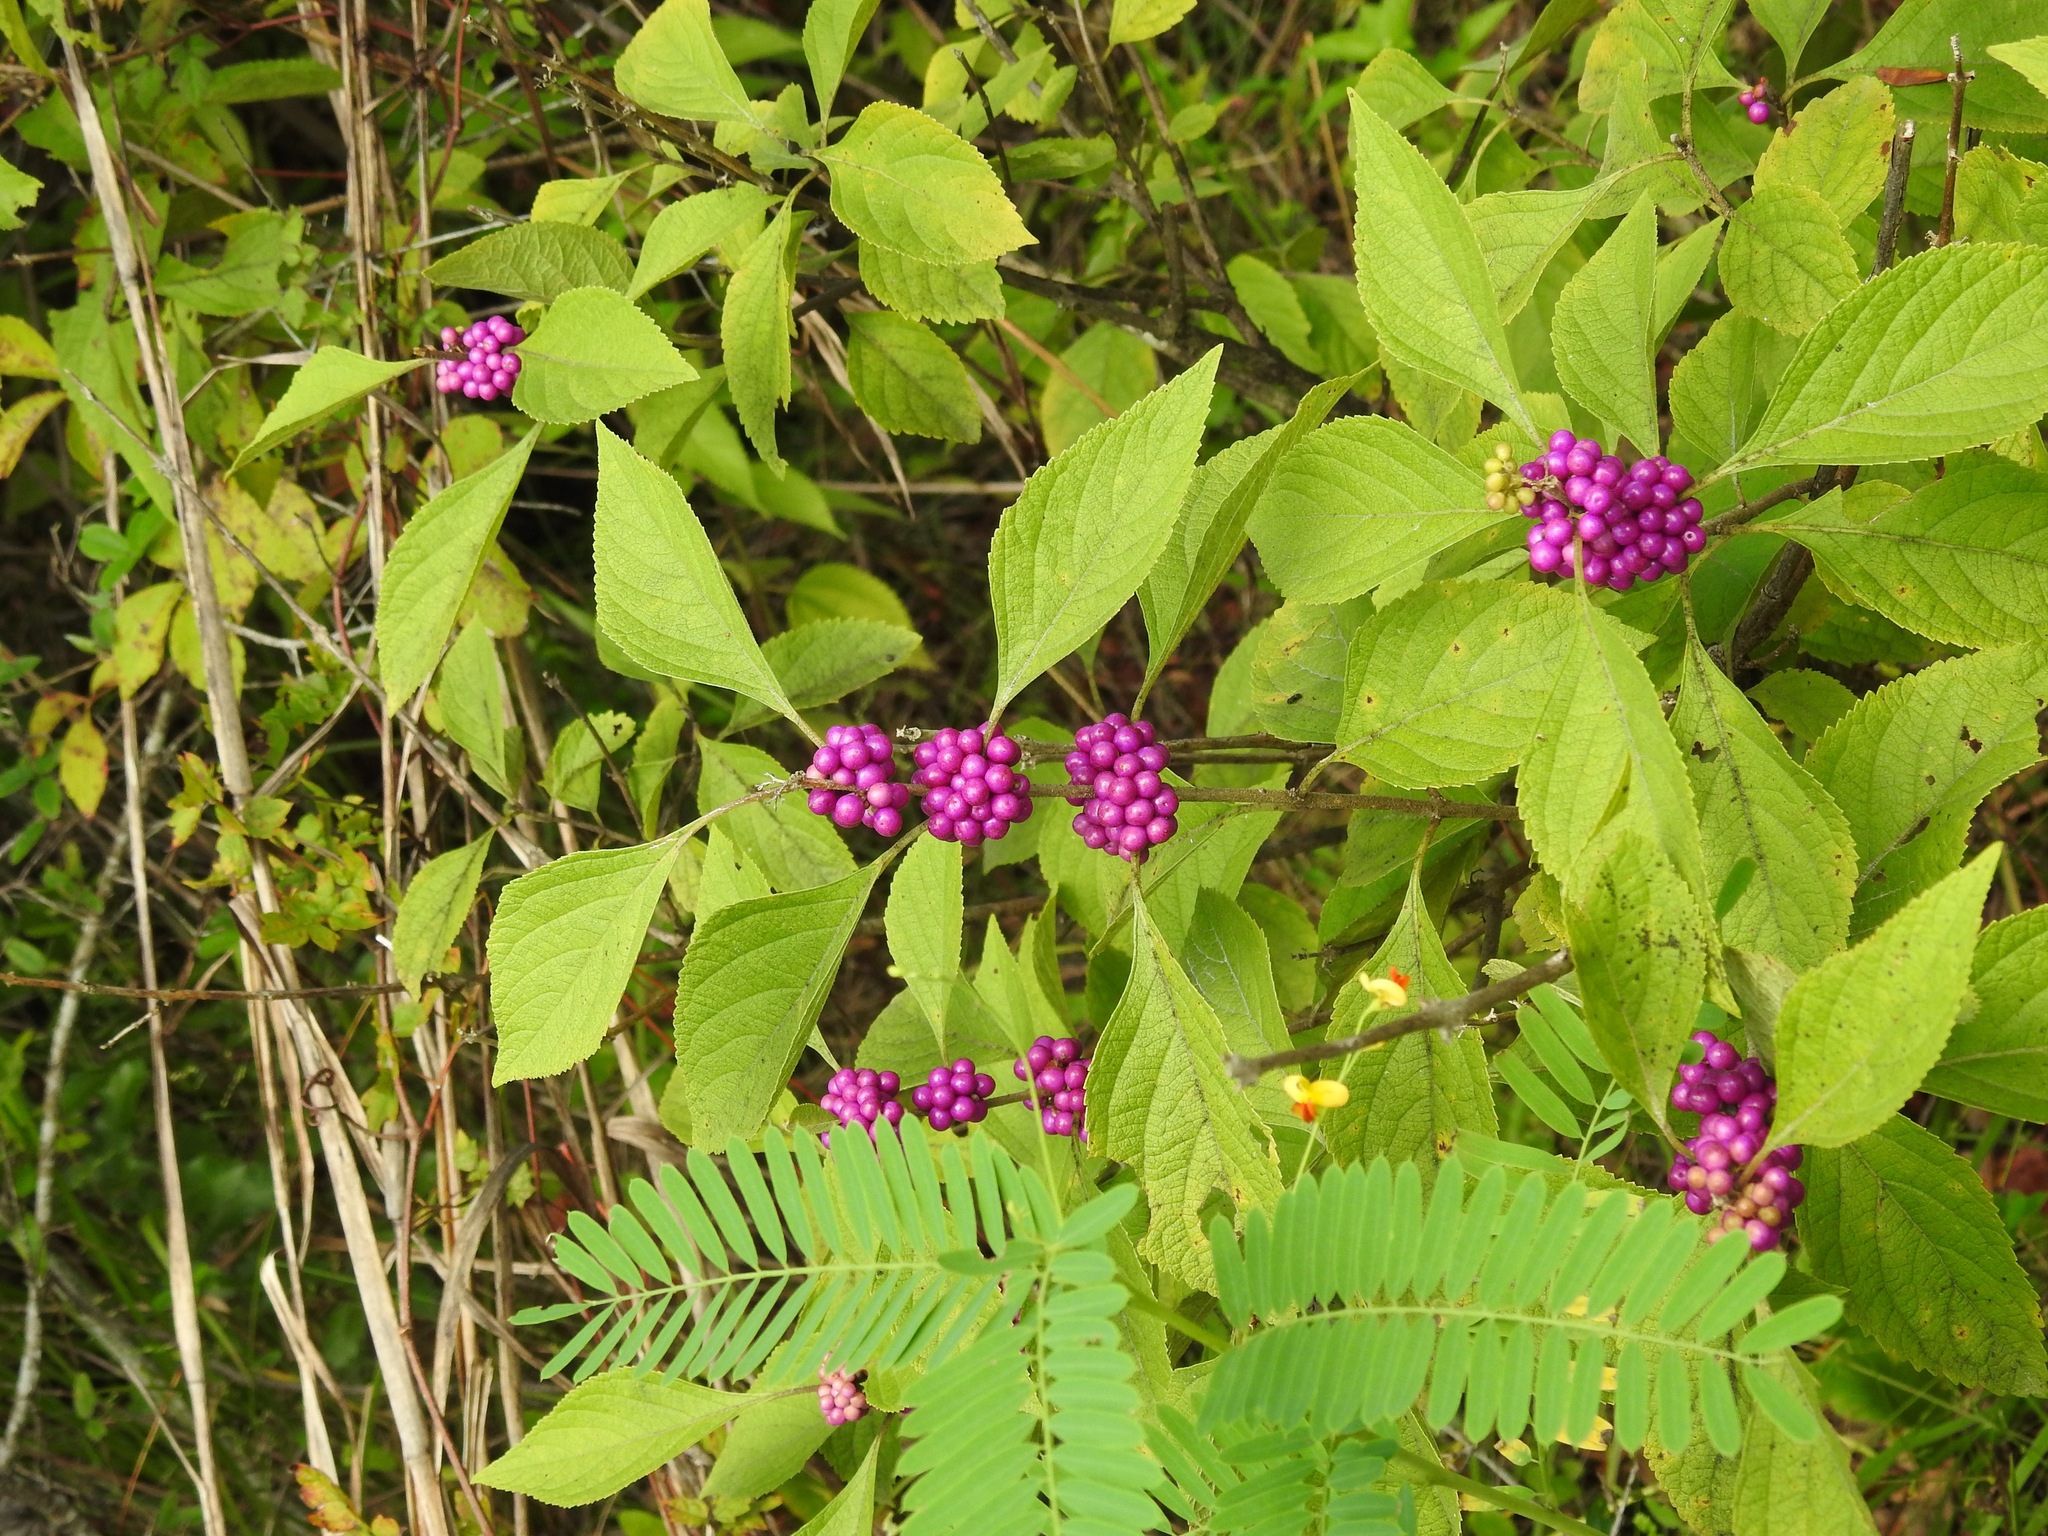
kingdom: Plantae
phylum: Tracheophyta
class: Magnoliopsida
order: Lamiales
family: Lamiaceae
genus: Callicarpa
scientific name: Callicarpa americana
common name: American beautyberry
